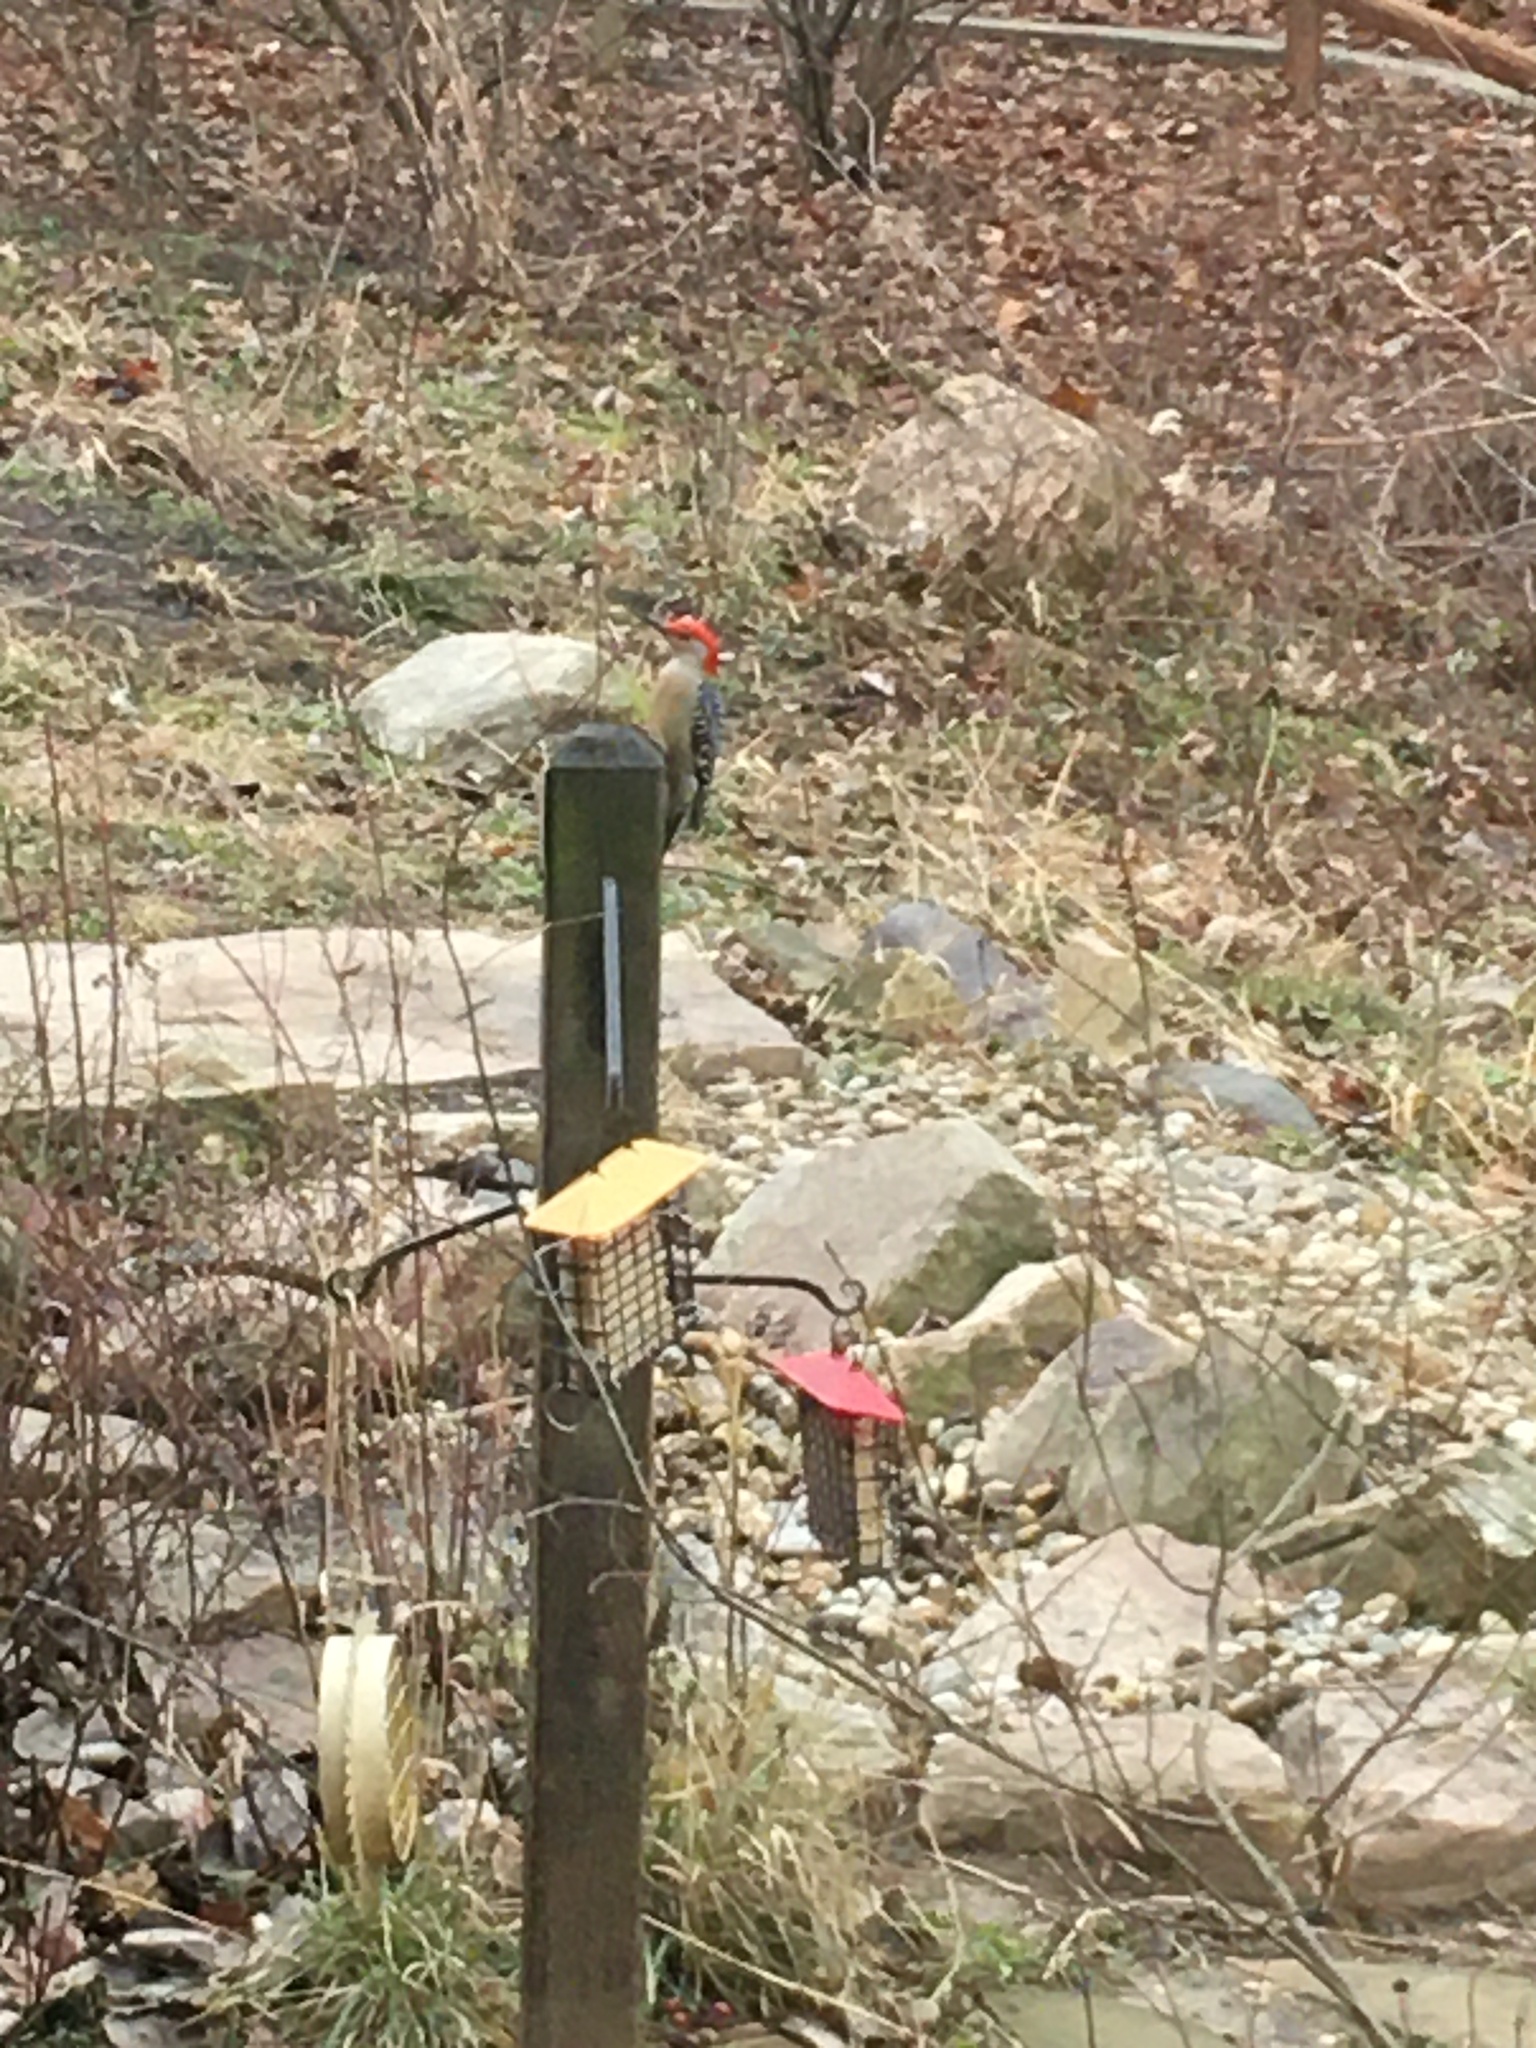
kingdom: Animalia
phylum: Chordata
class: Aves
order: Piciformes
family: Picidae
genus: Melanerpes
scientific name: Melanerpes carolinus
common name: Red-bellied woodpecker
